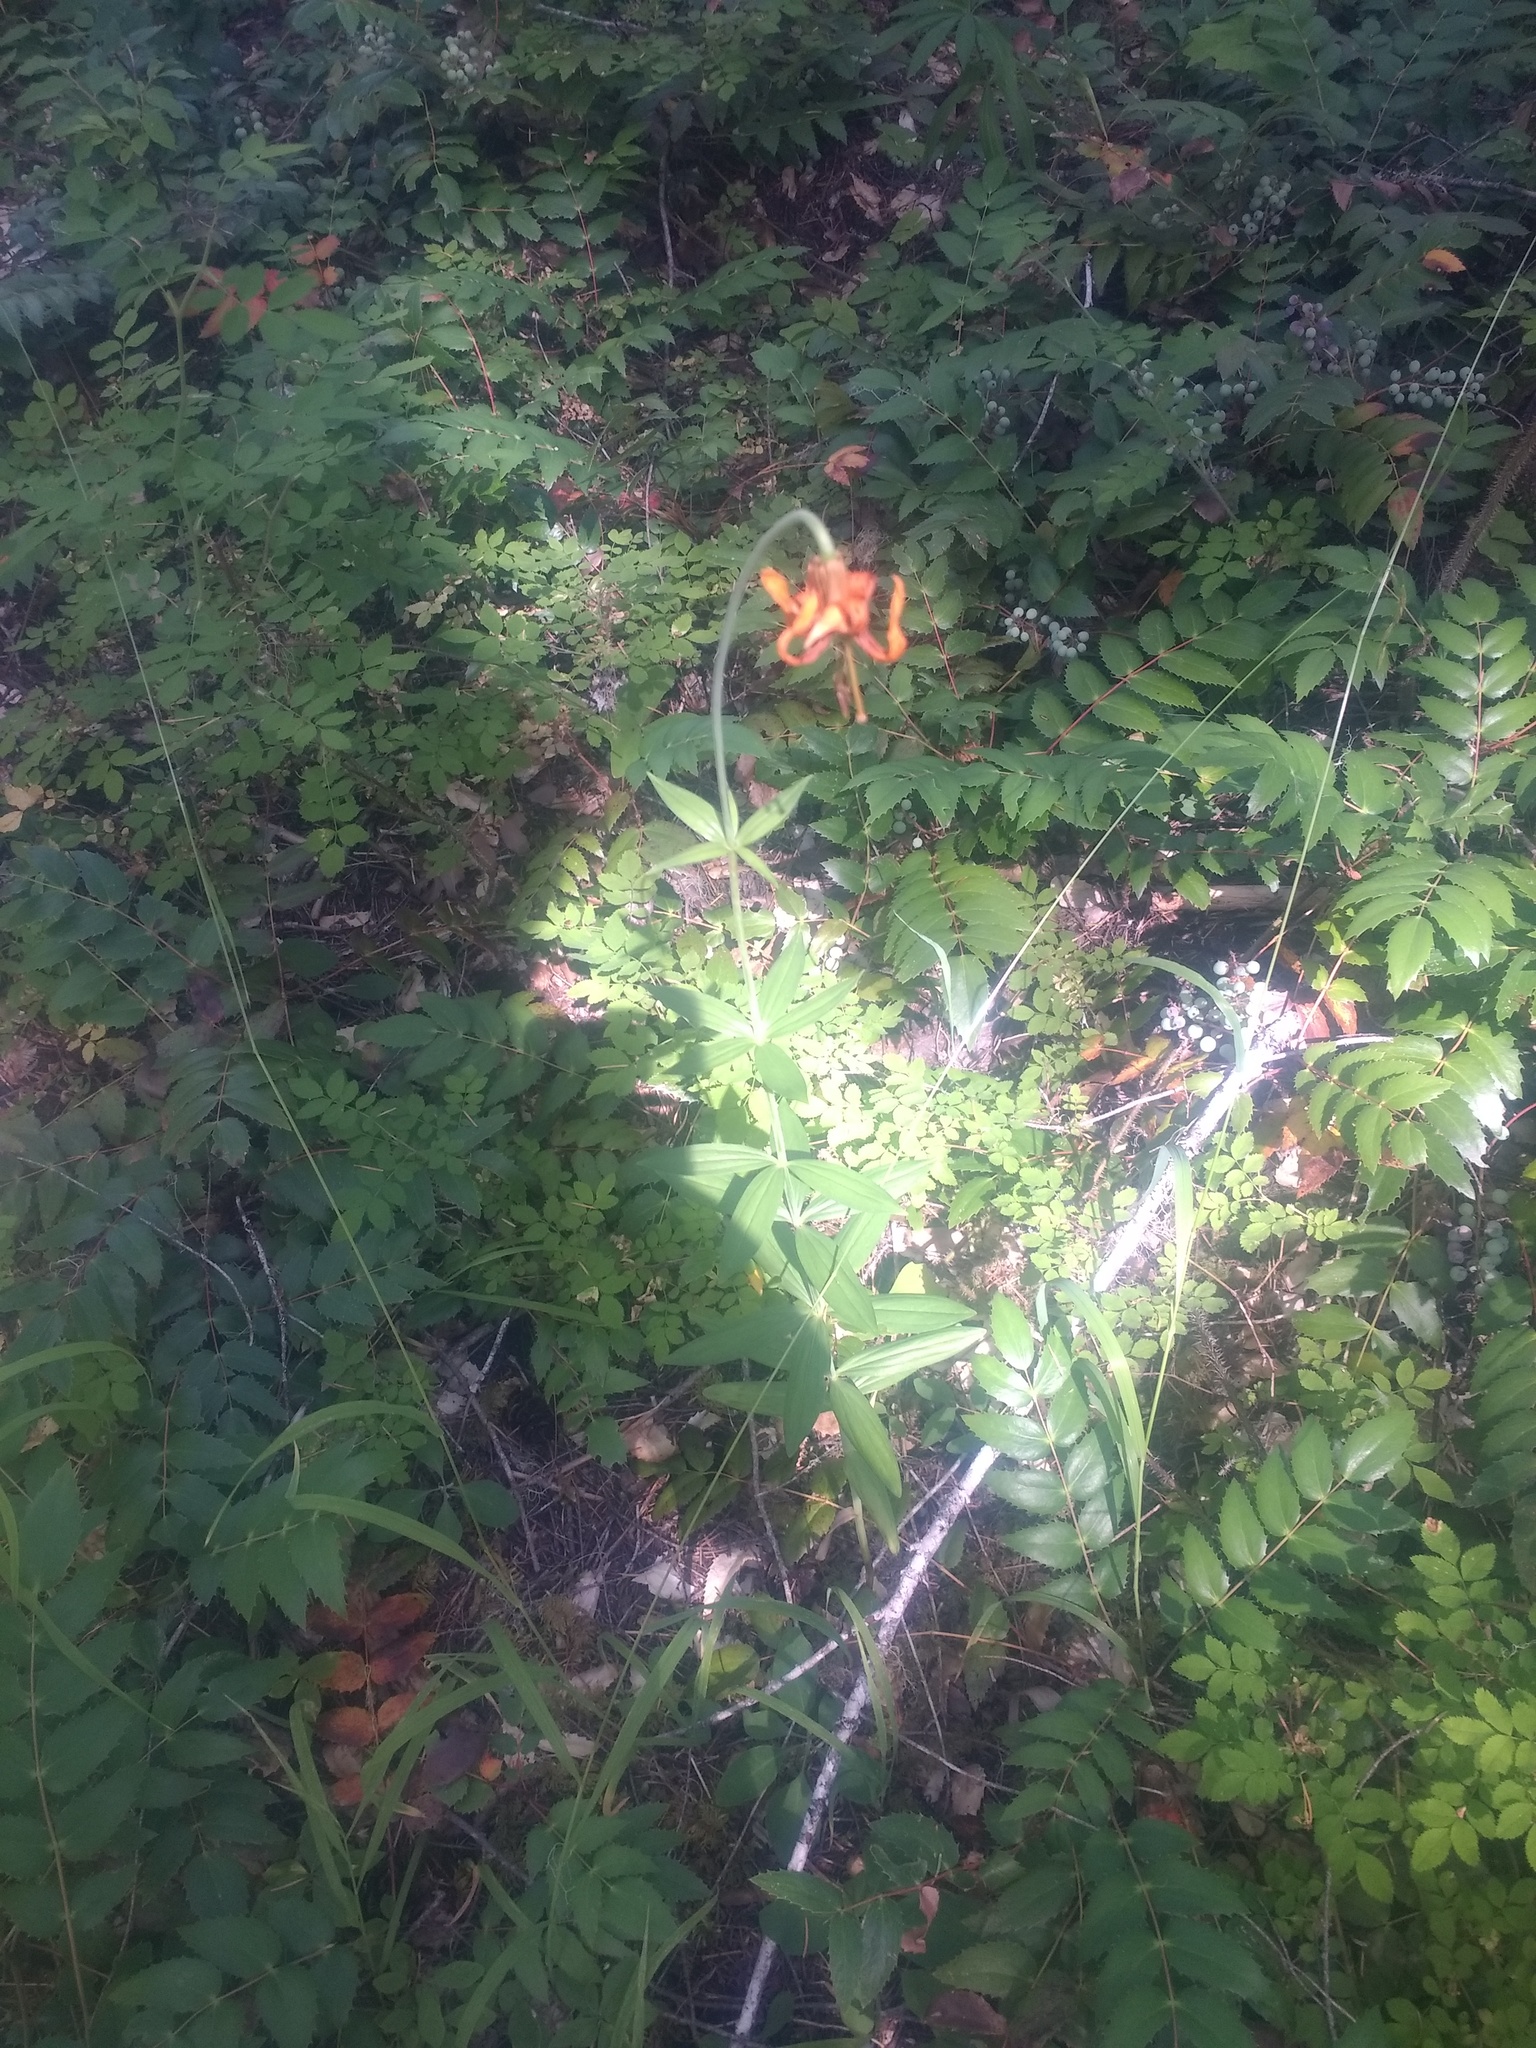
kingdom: Plantae
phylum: Tracheophyta
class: Liliopsida
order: Liliales
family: Liliaceae
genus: Lilium
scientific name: Lilium columbianum
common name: Columbia lily
